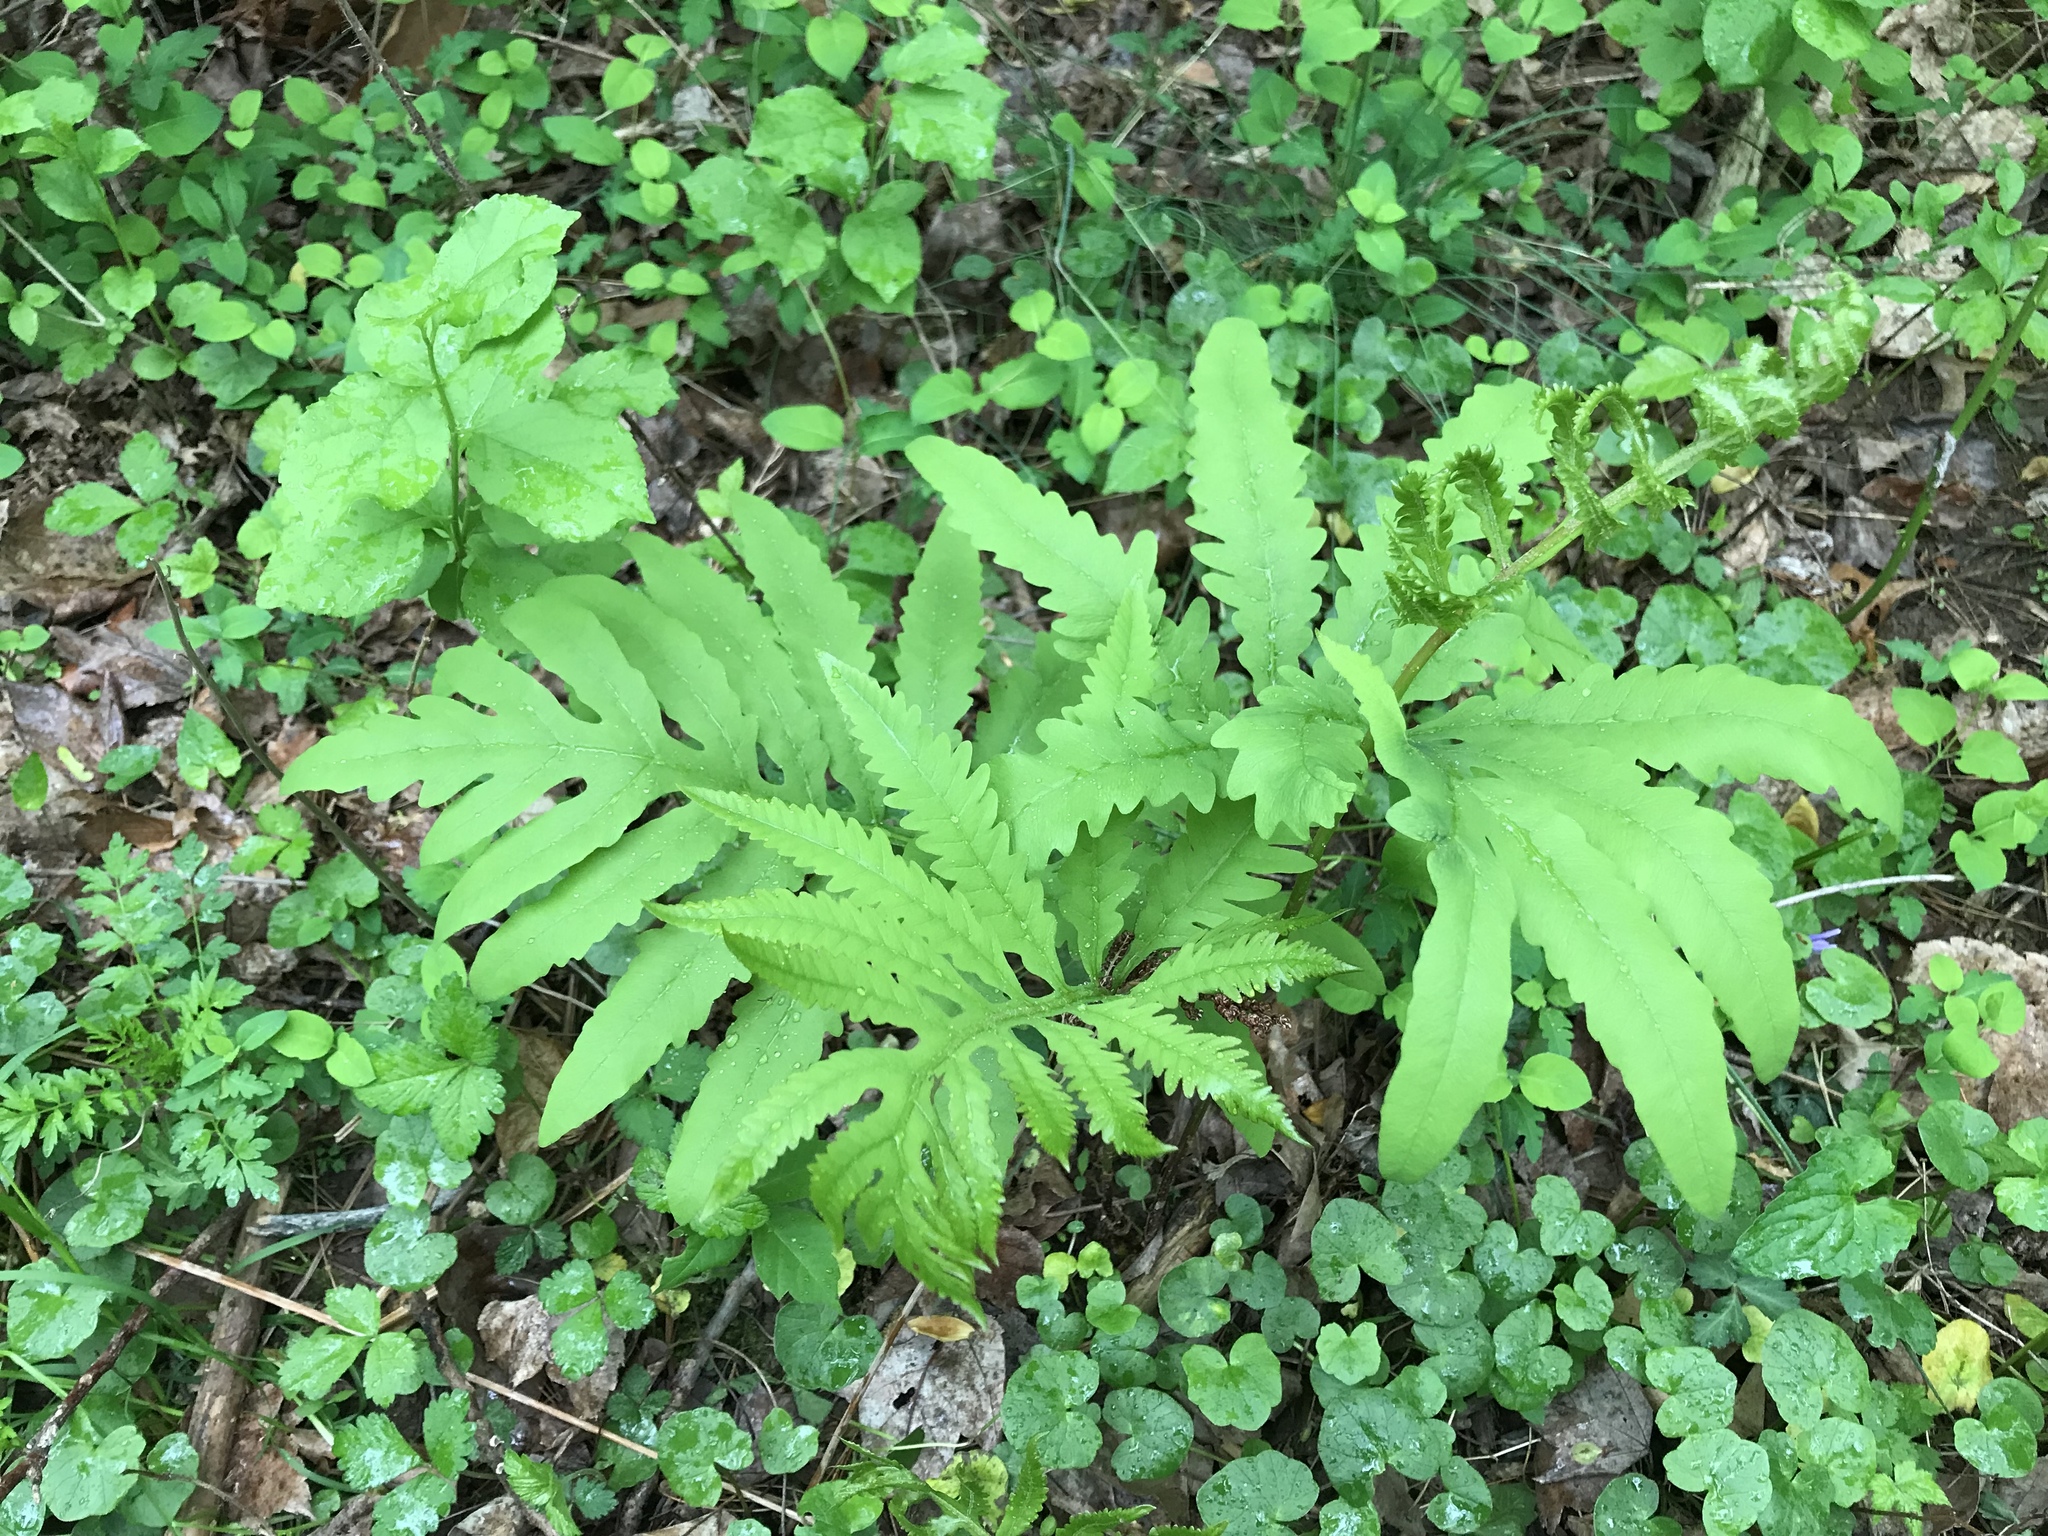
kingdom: Plantae
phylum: Tracheophyta
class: Polypodiopsida
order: Polypodiales
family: Onocleaceae
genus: Onoclea
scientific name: Onoclea sensibilis
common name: Sensitive fern
